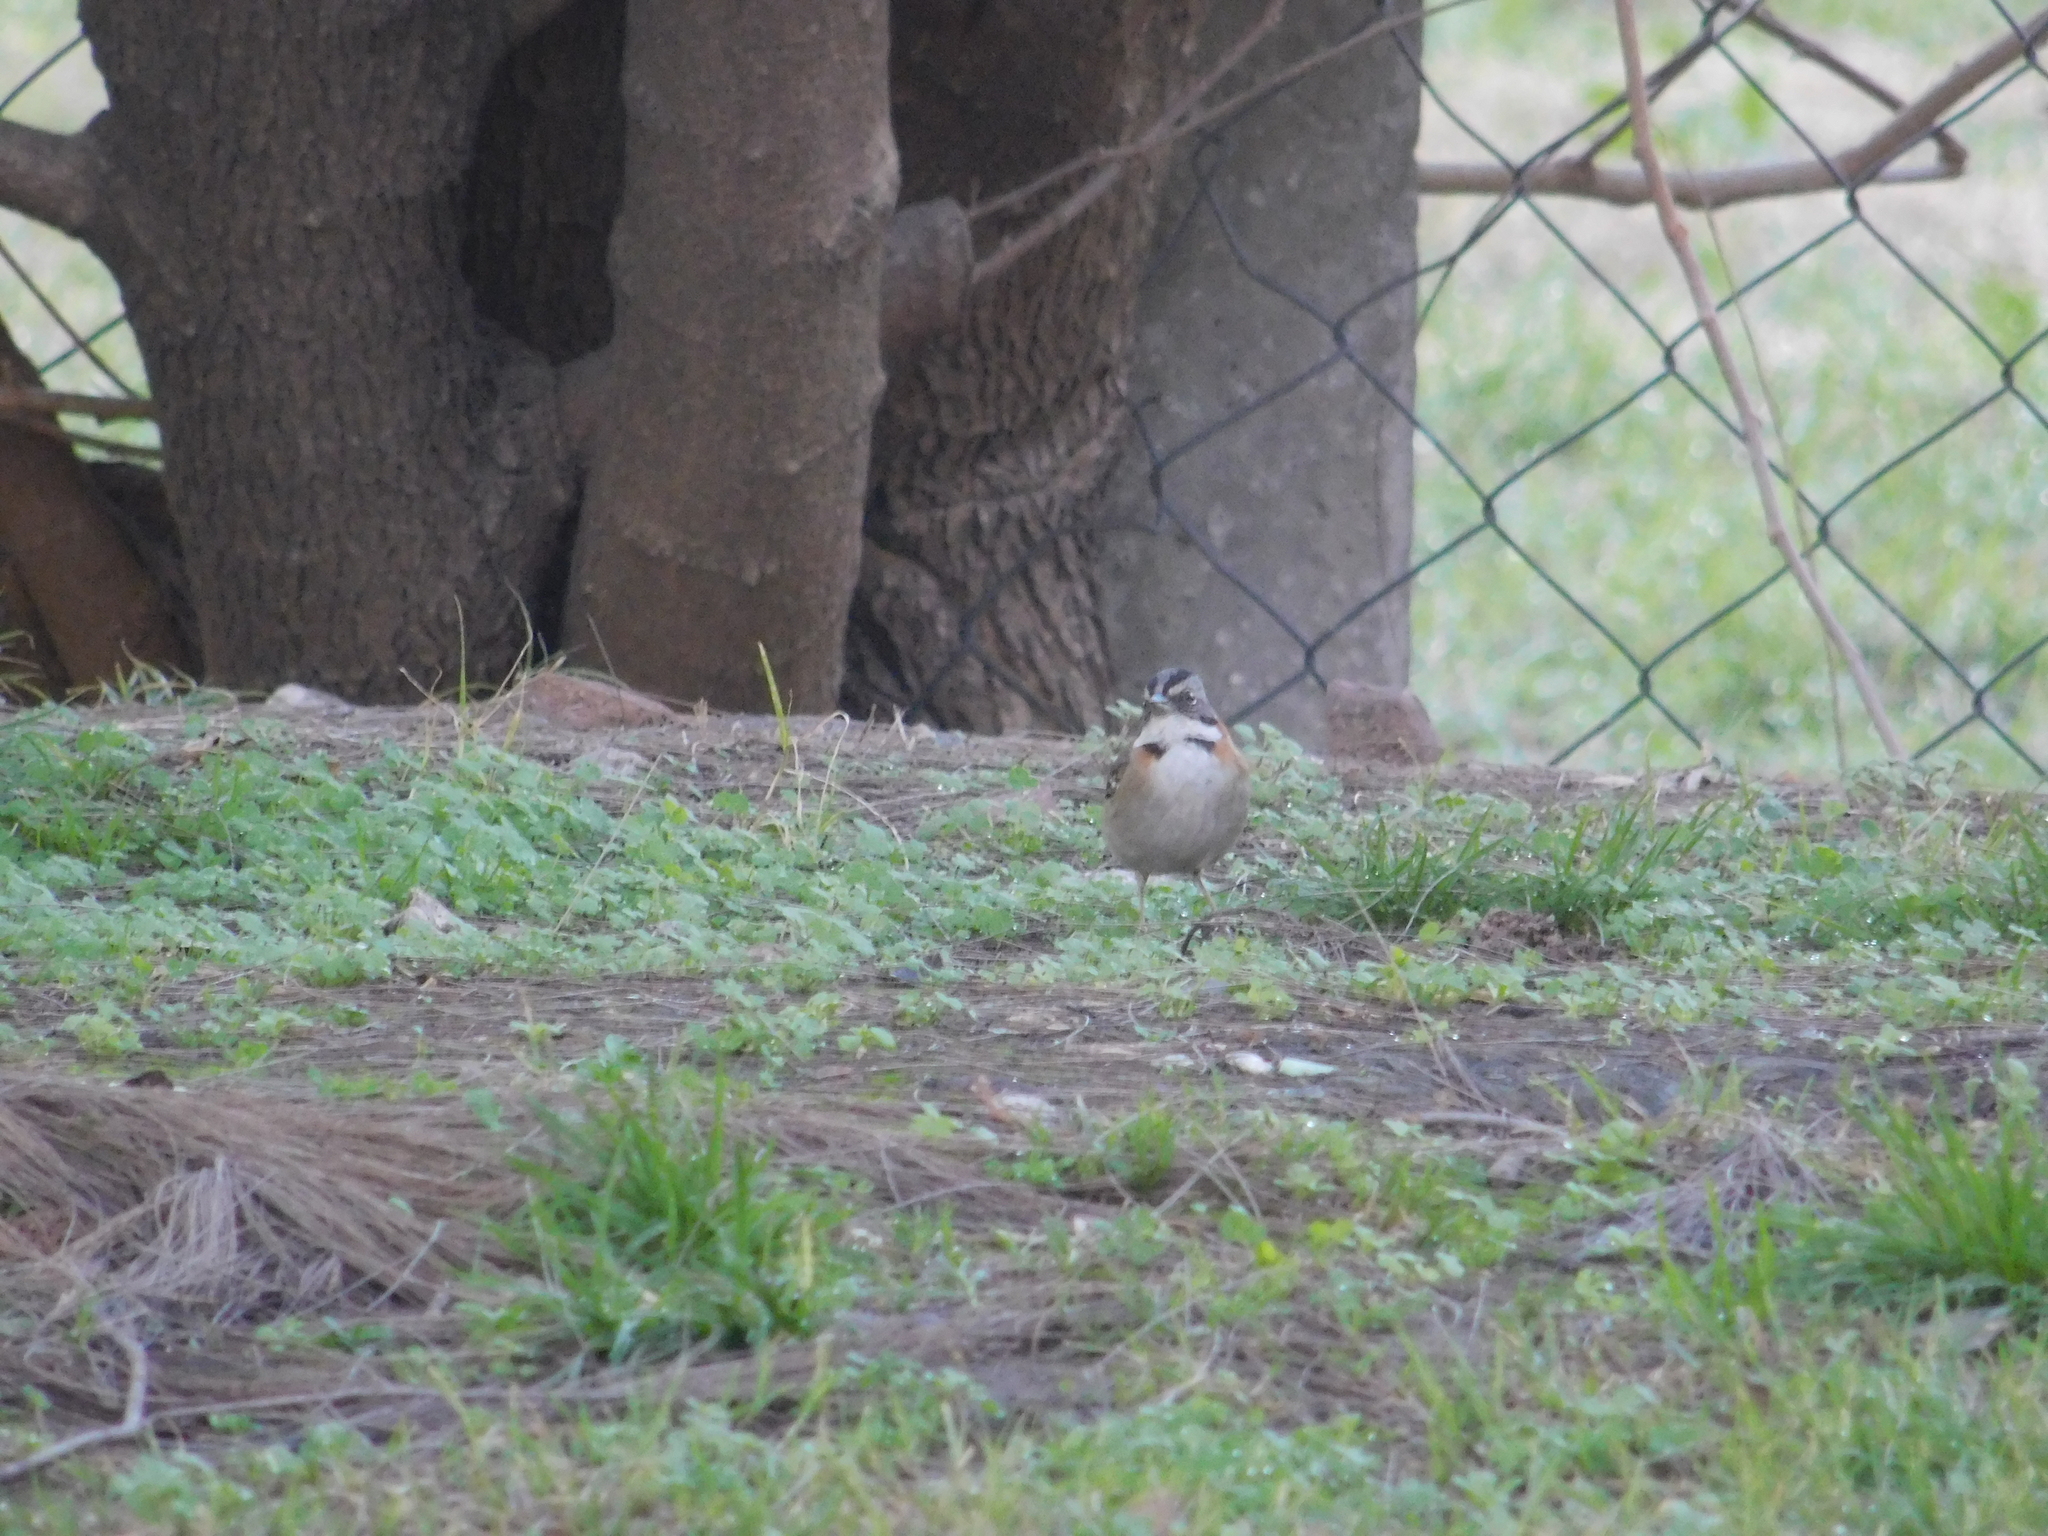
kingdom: Animalia
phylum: Chordata
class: Aves
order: Passeriformes
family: Passerellidae
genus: Zonotrichia
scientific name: Zonotrichia capensis
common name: Rufous-collared sparrow
